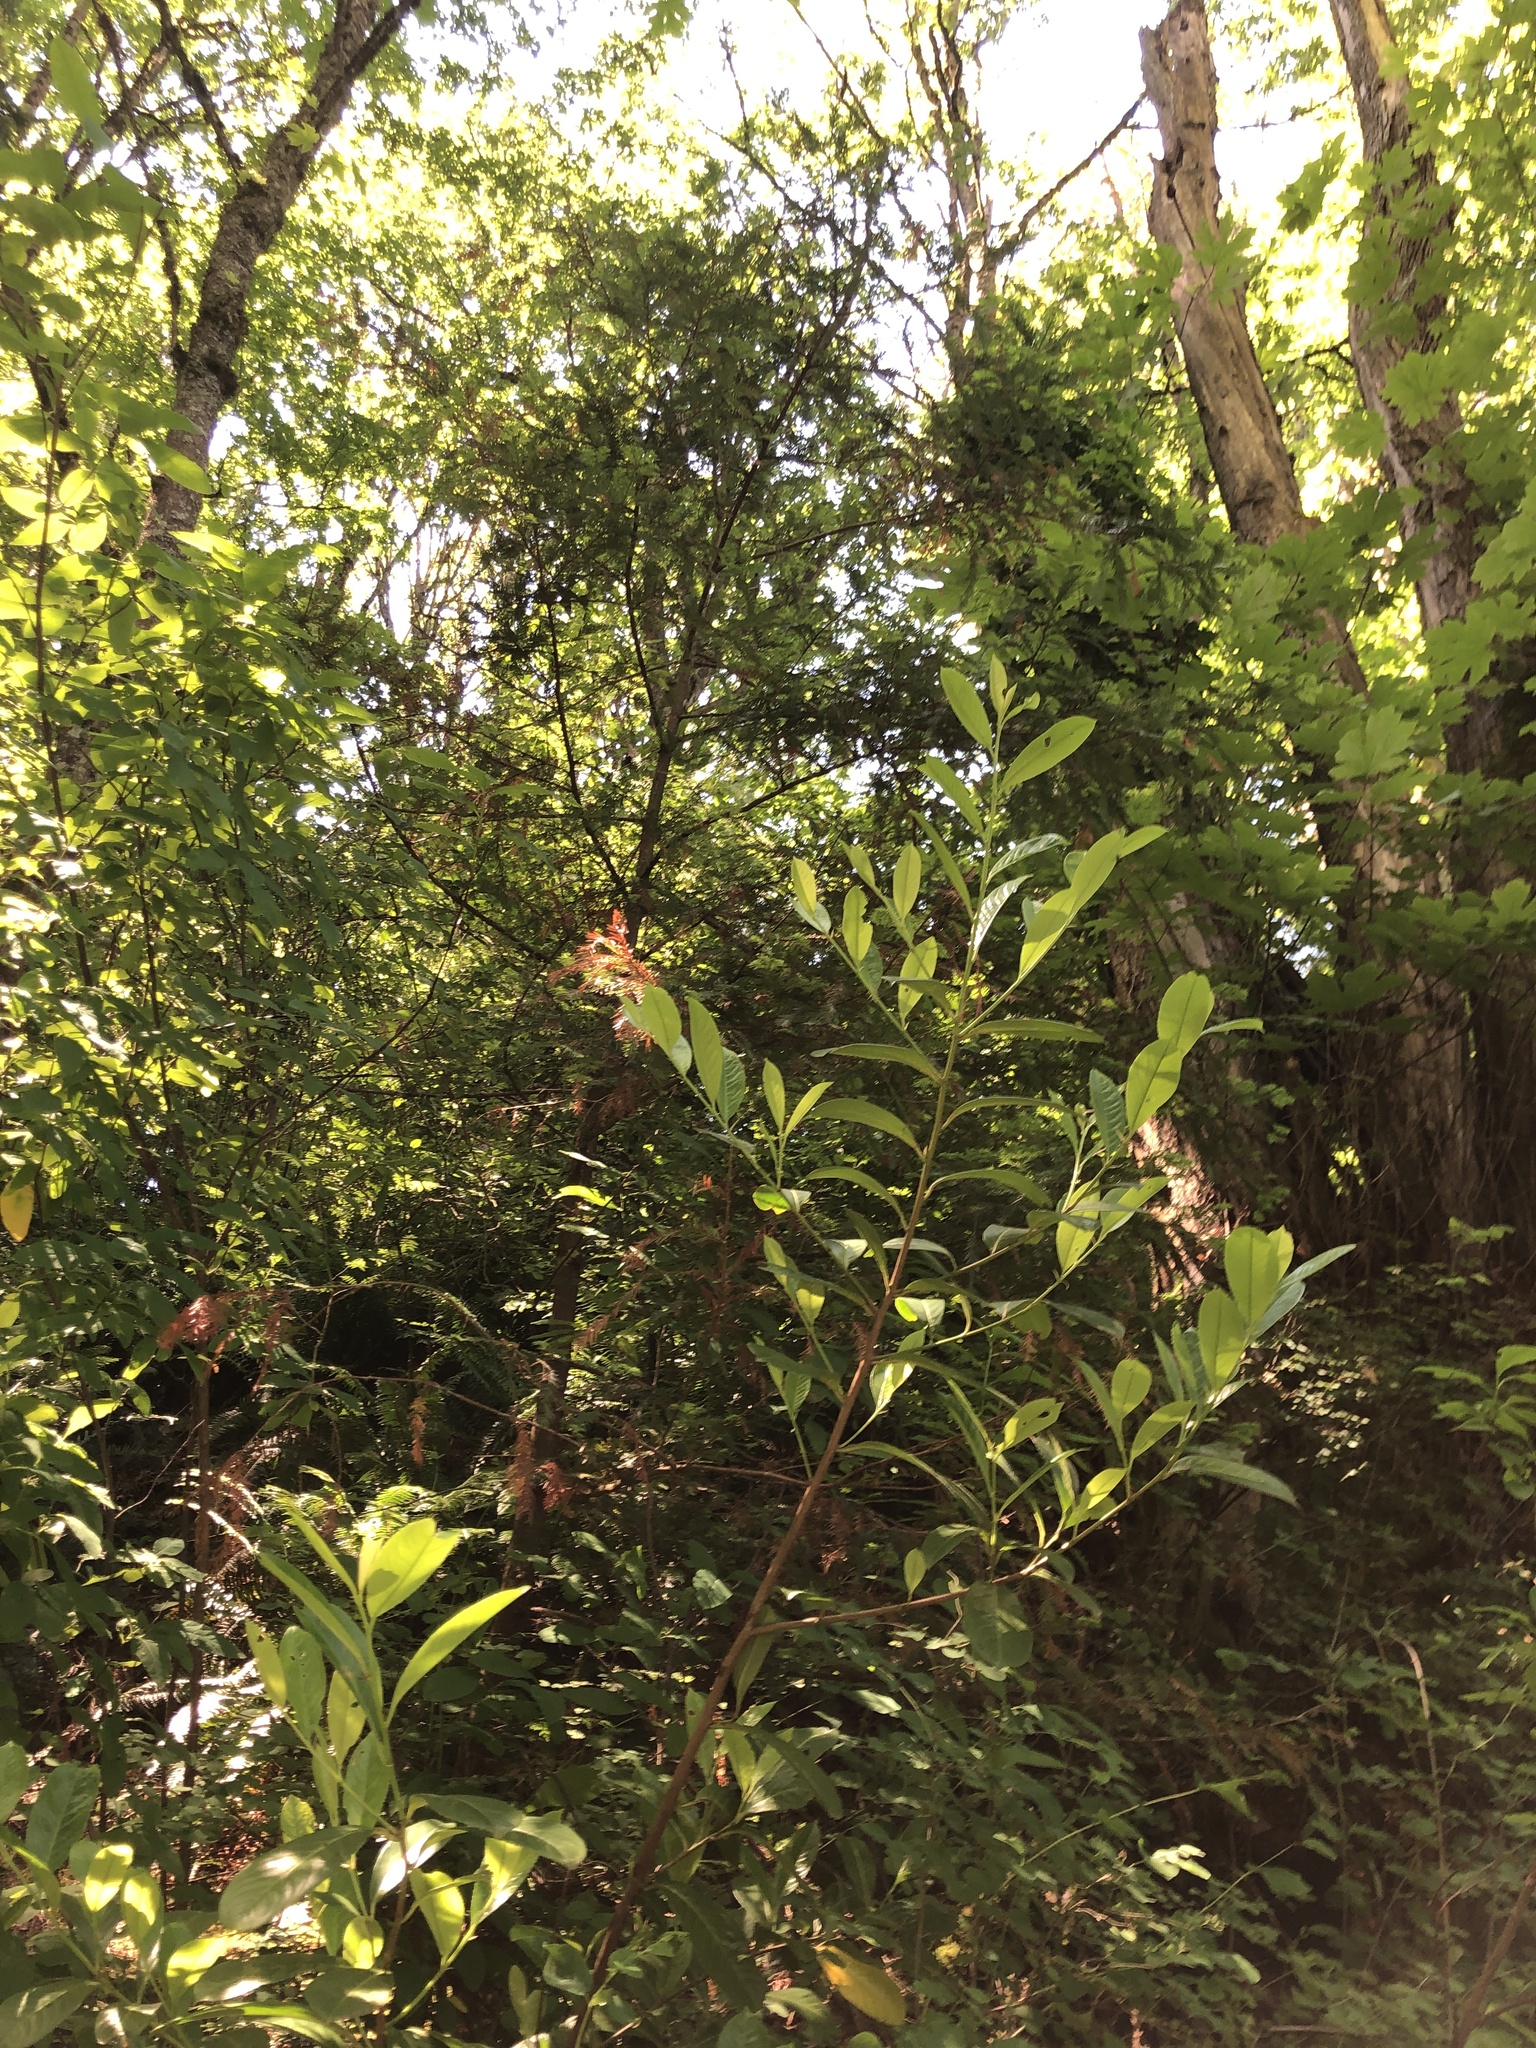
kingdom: Plantae
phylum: Tracheophyta
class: Pinopsida
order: Pinales
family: Cupressaceae
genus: Sequoia
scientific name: Sequoia sempervirens
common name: Coast redwood
